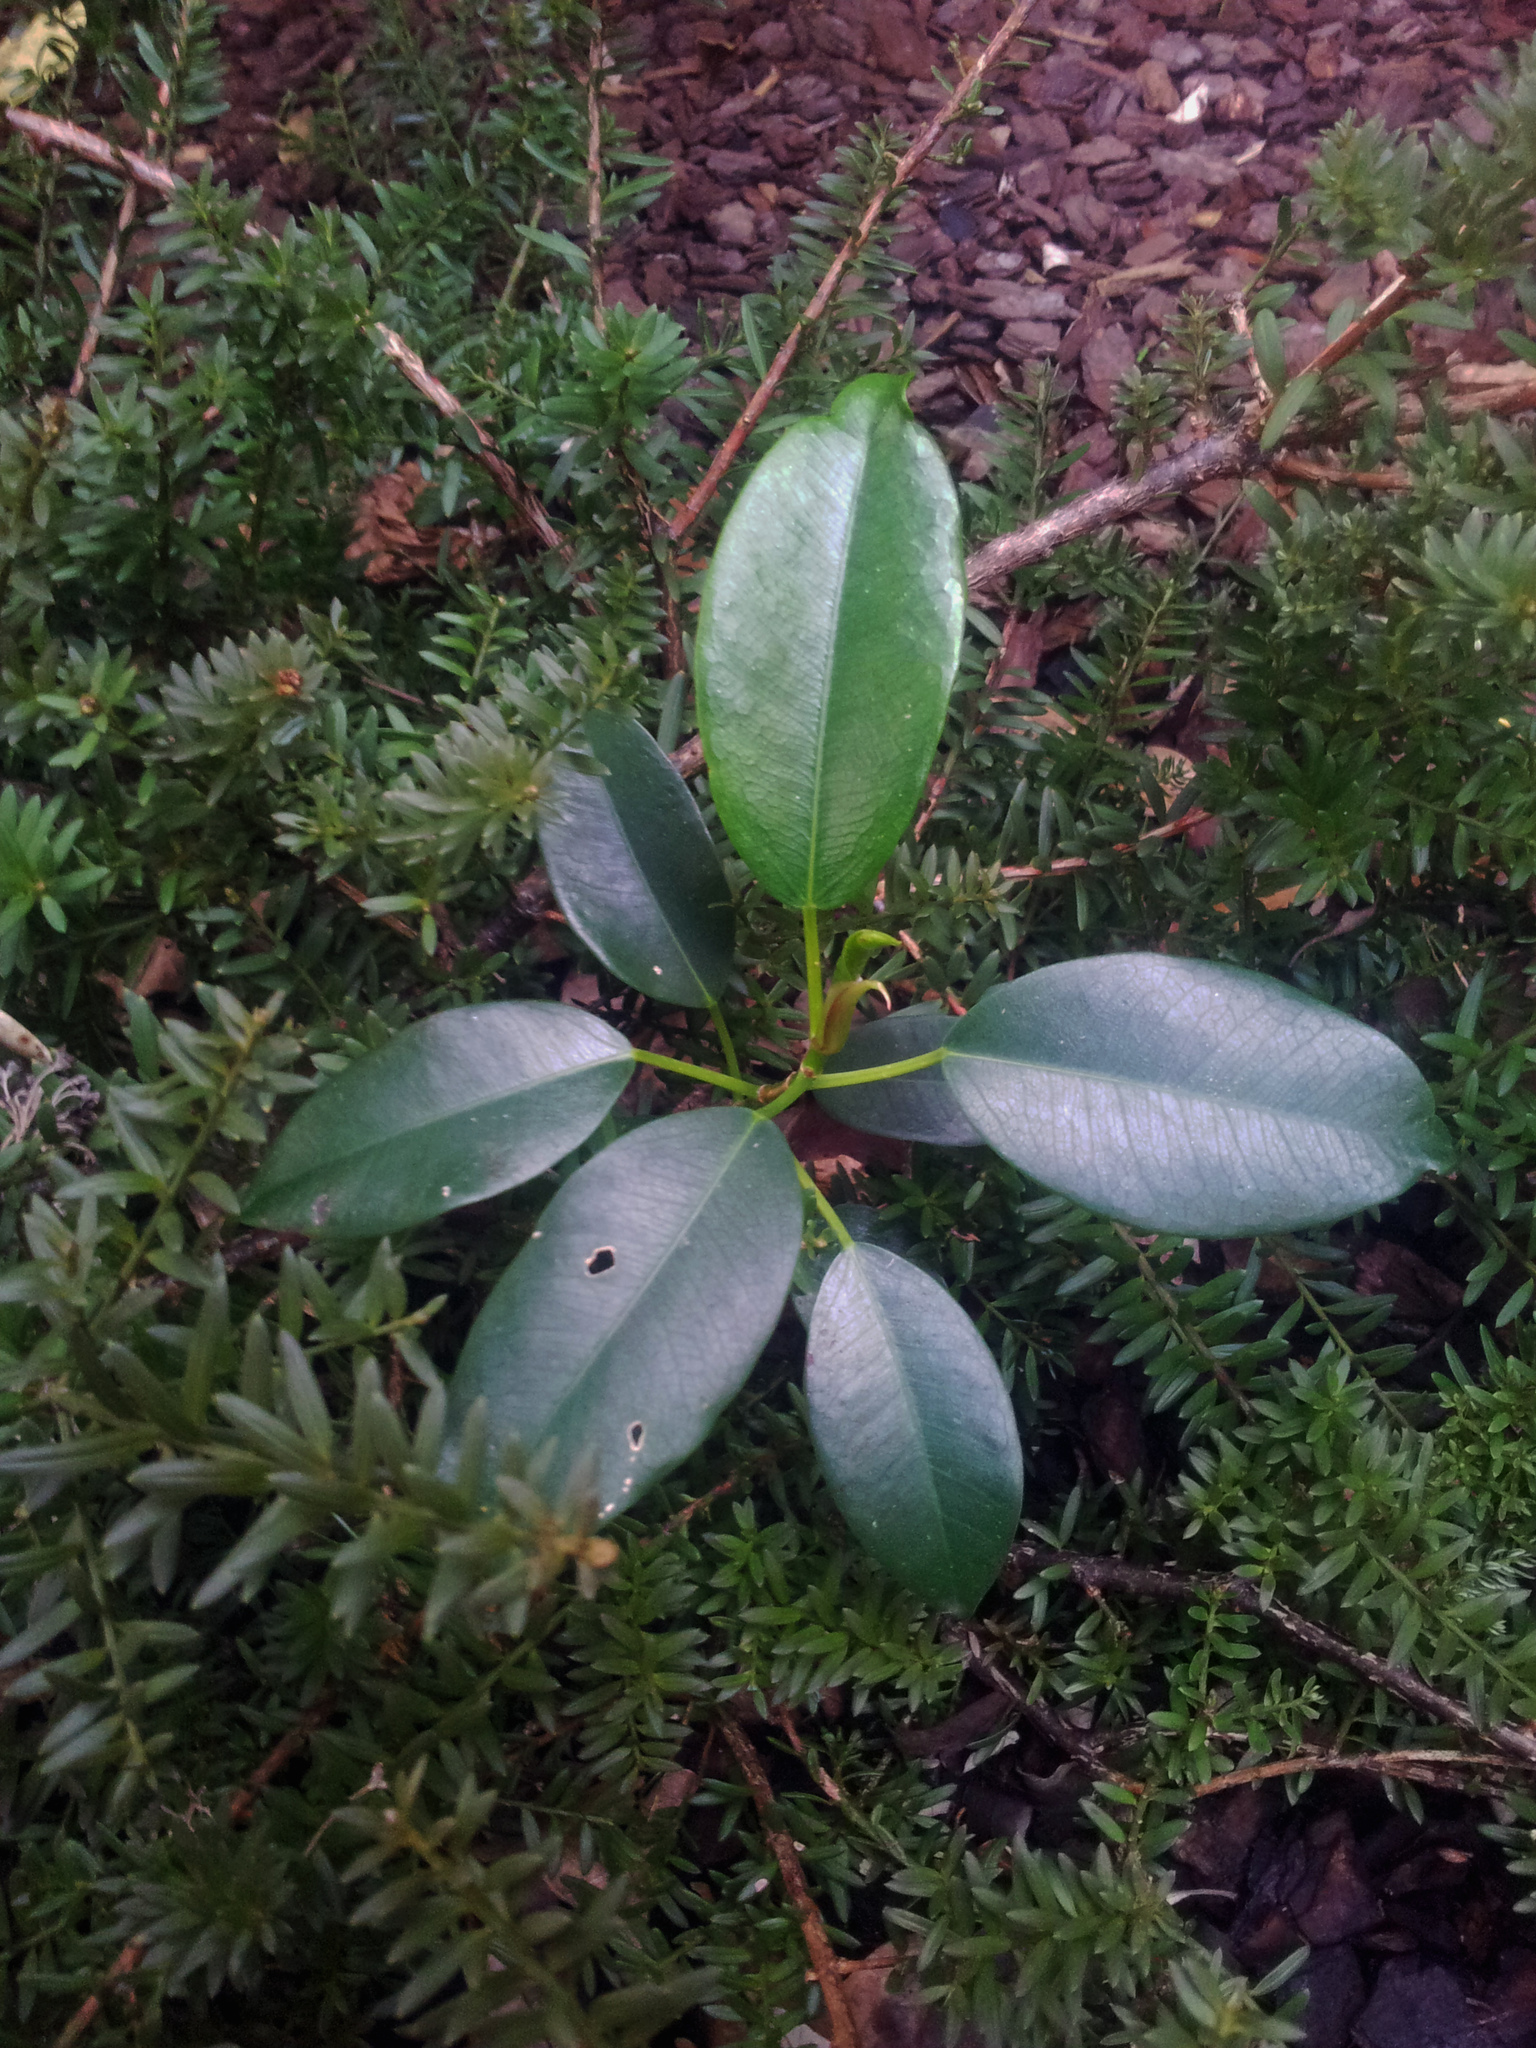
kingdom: Plantae
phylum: Tracheophyta
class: Magnoliopsida
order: Rosales
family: Moraceae
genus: Ficus
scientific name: Ficus rubiginosa
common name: Port jackson fig
